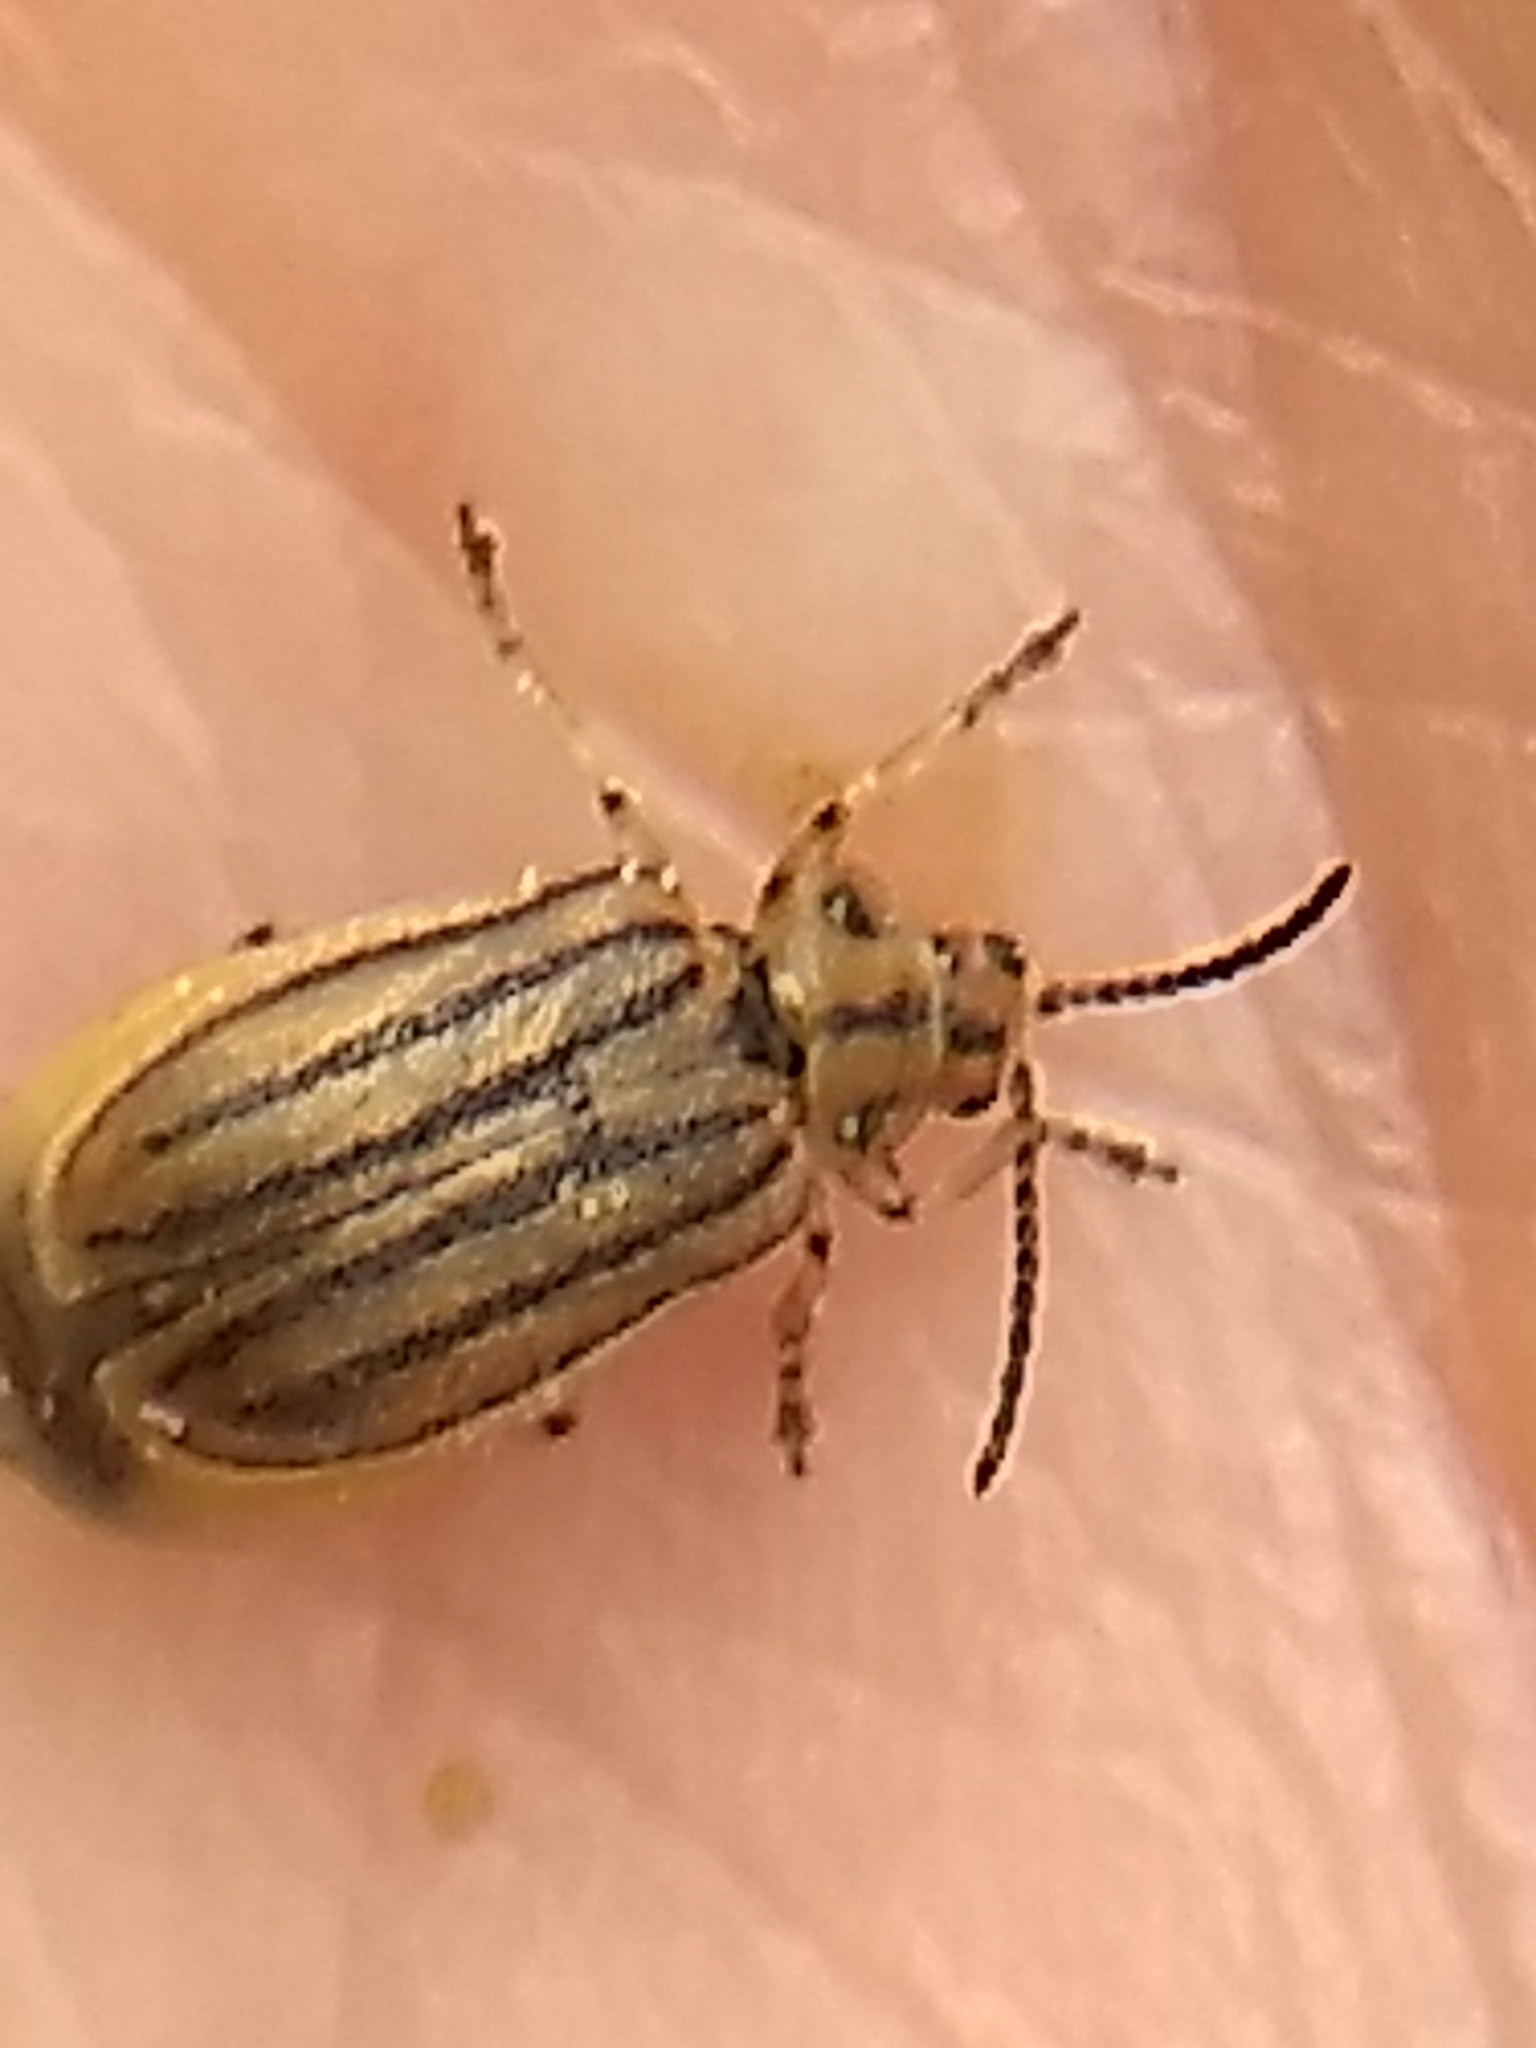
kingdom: Animalia
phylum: Arthropoda
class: Insecta
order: Coleoptera
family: Chrysomelidae
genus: Ophraella
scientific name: Ophraella conferta
